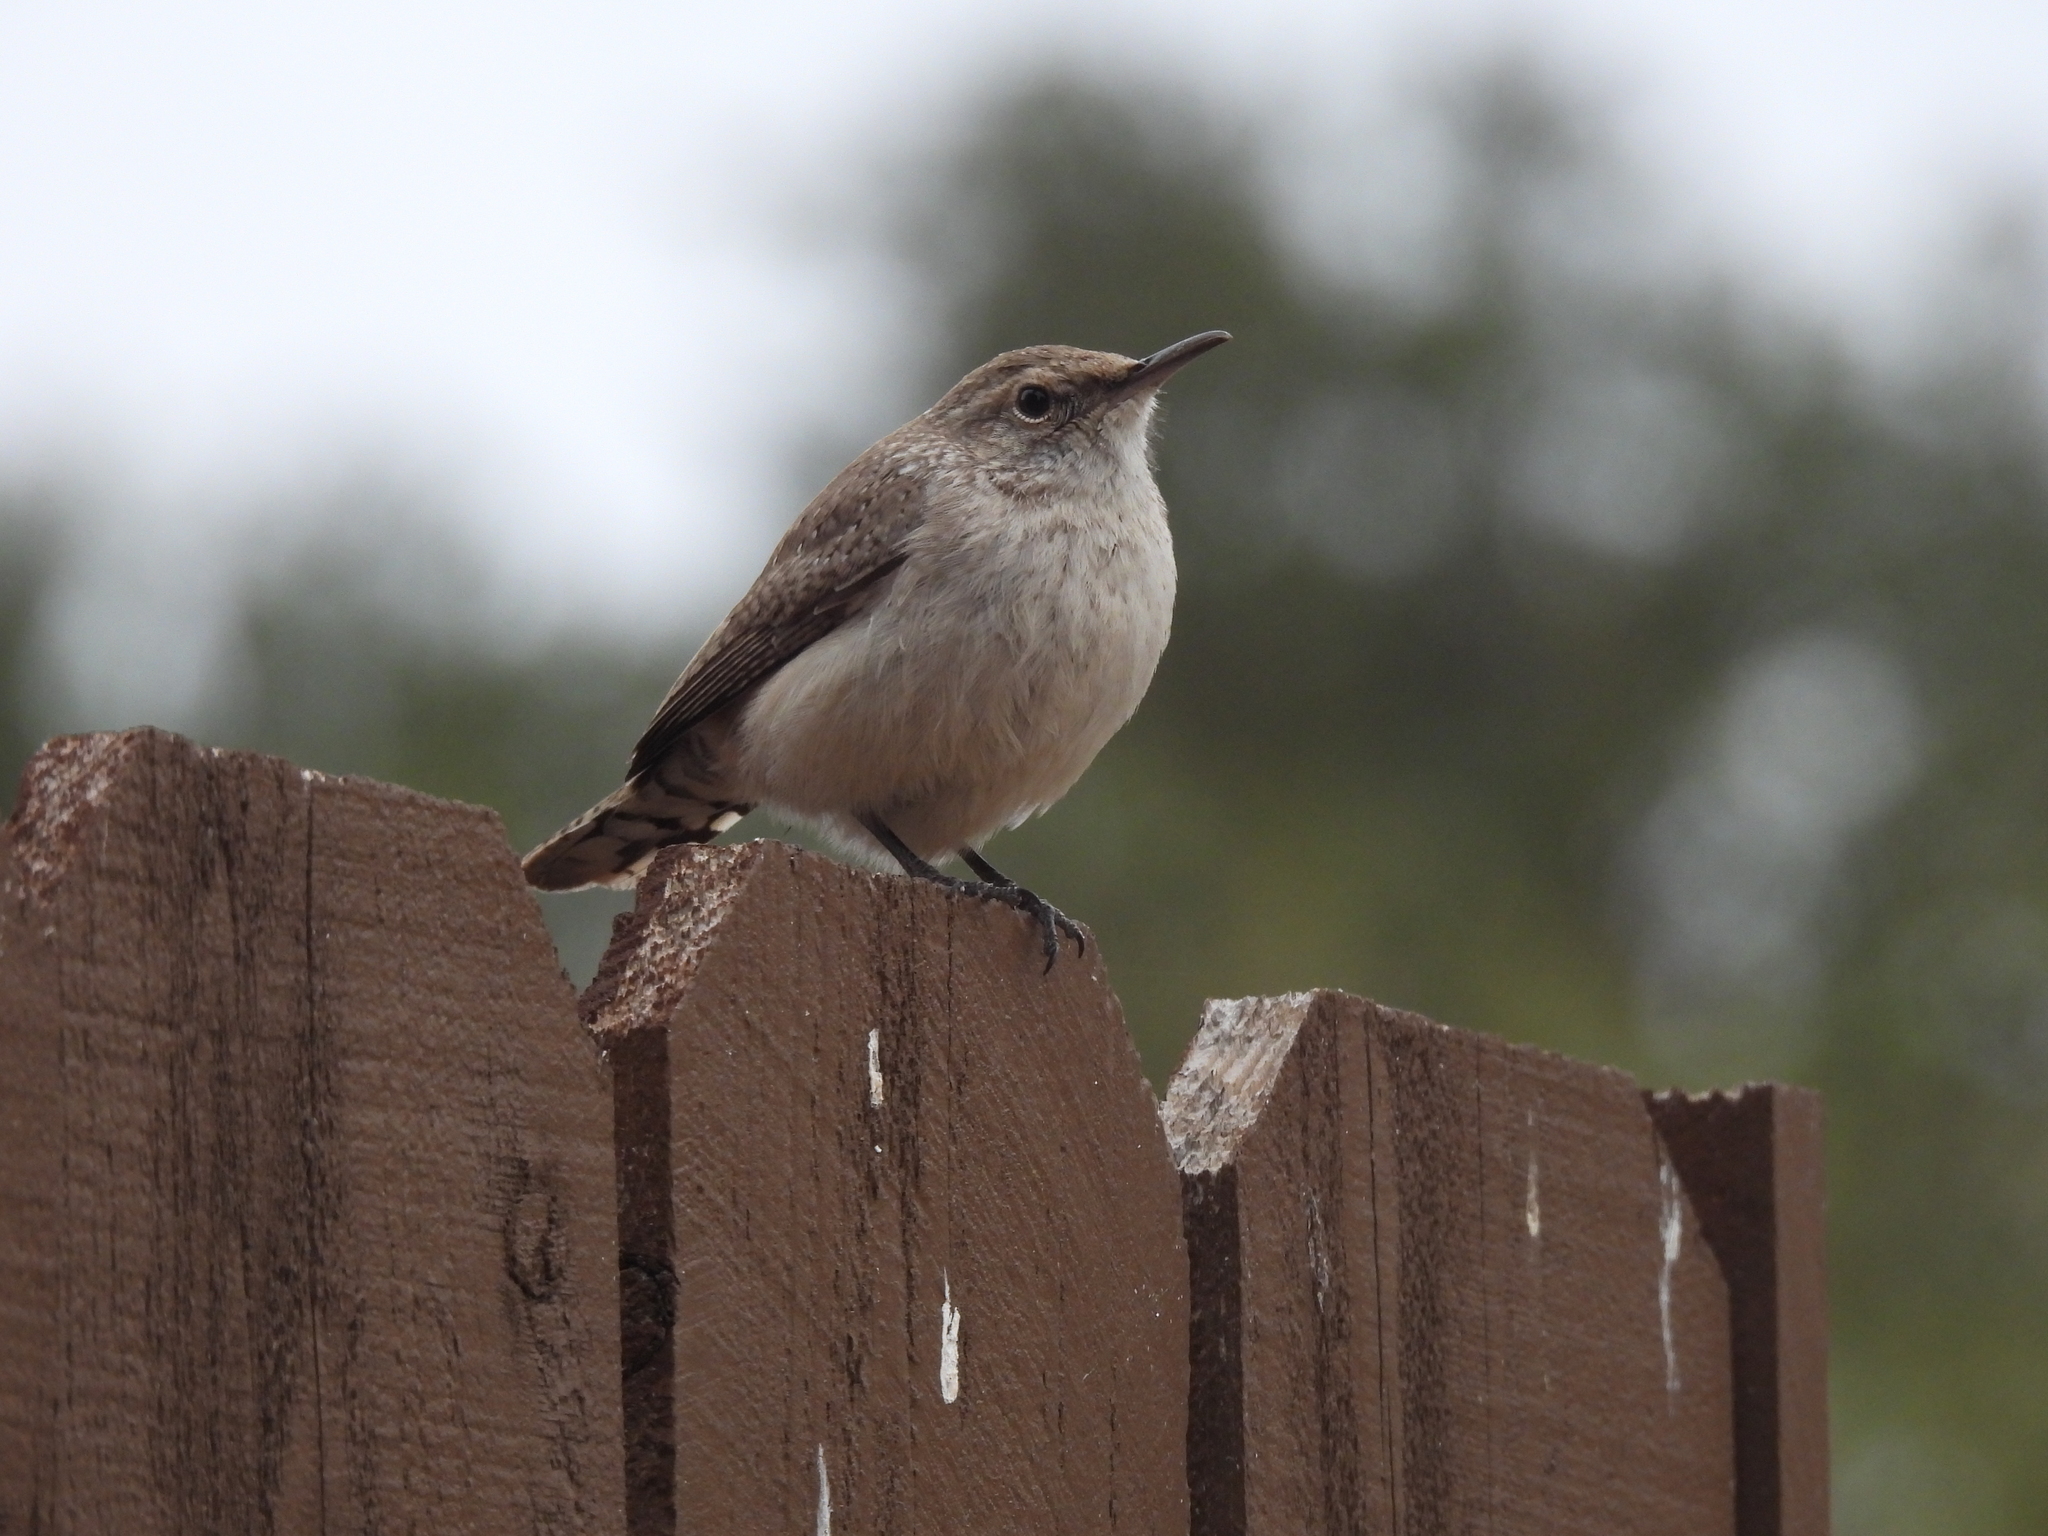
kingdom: Animalia
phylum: Chordata
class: Aves
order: Passeriformes
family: Troglodytidae
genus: Salpinctes
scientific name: Salpinctes obsoletus
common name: Rock wren
